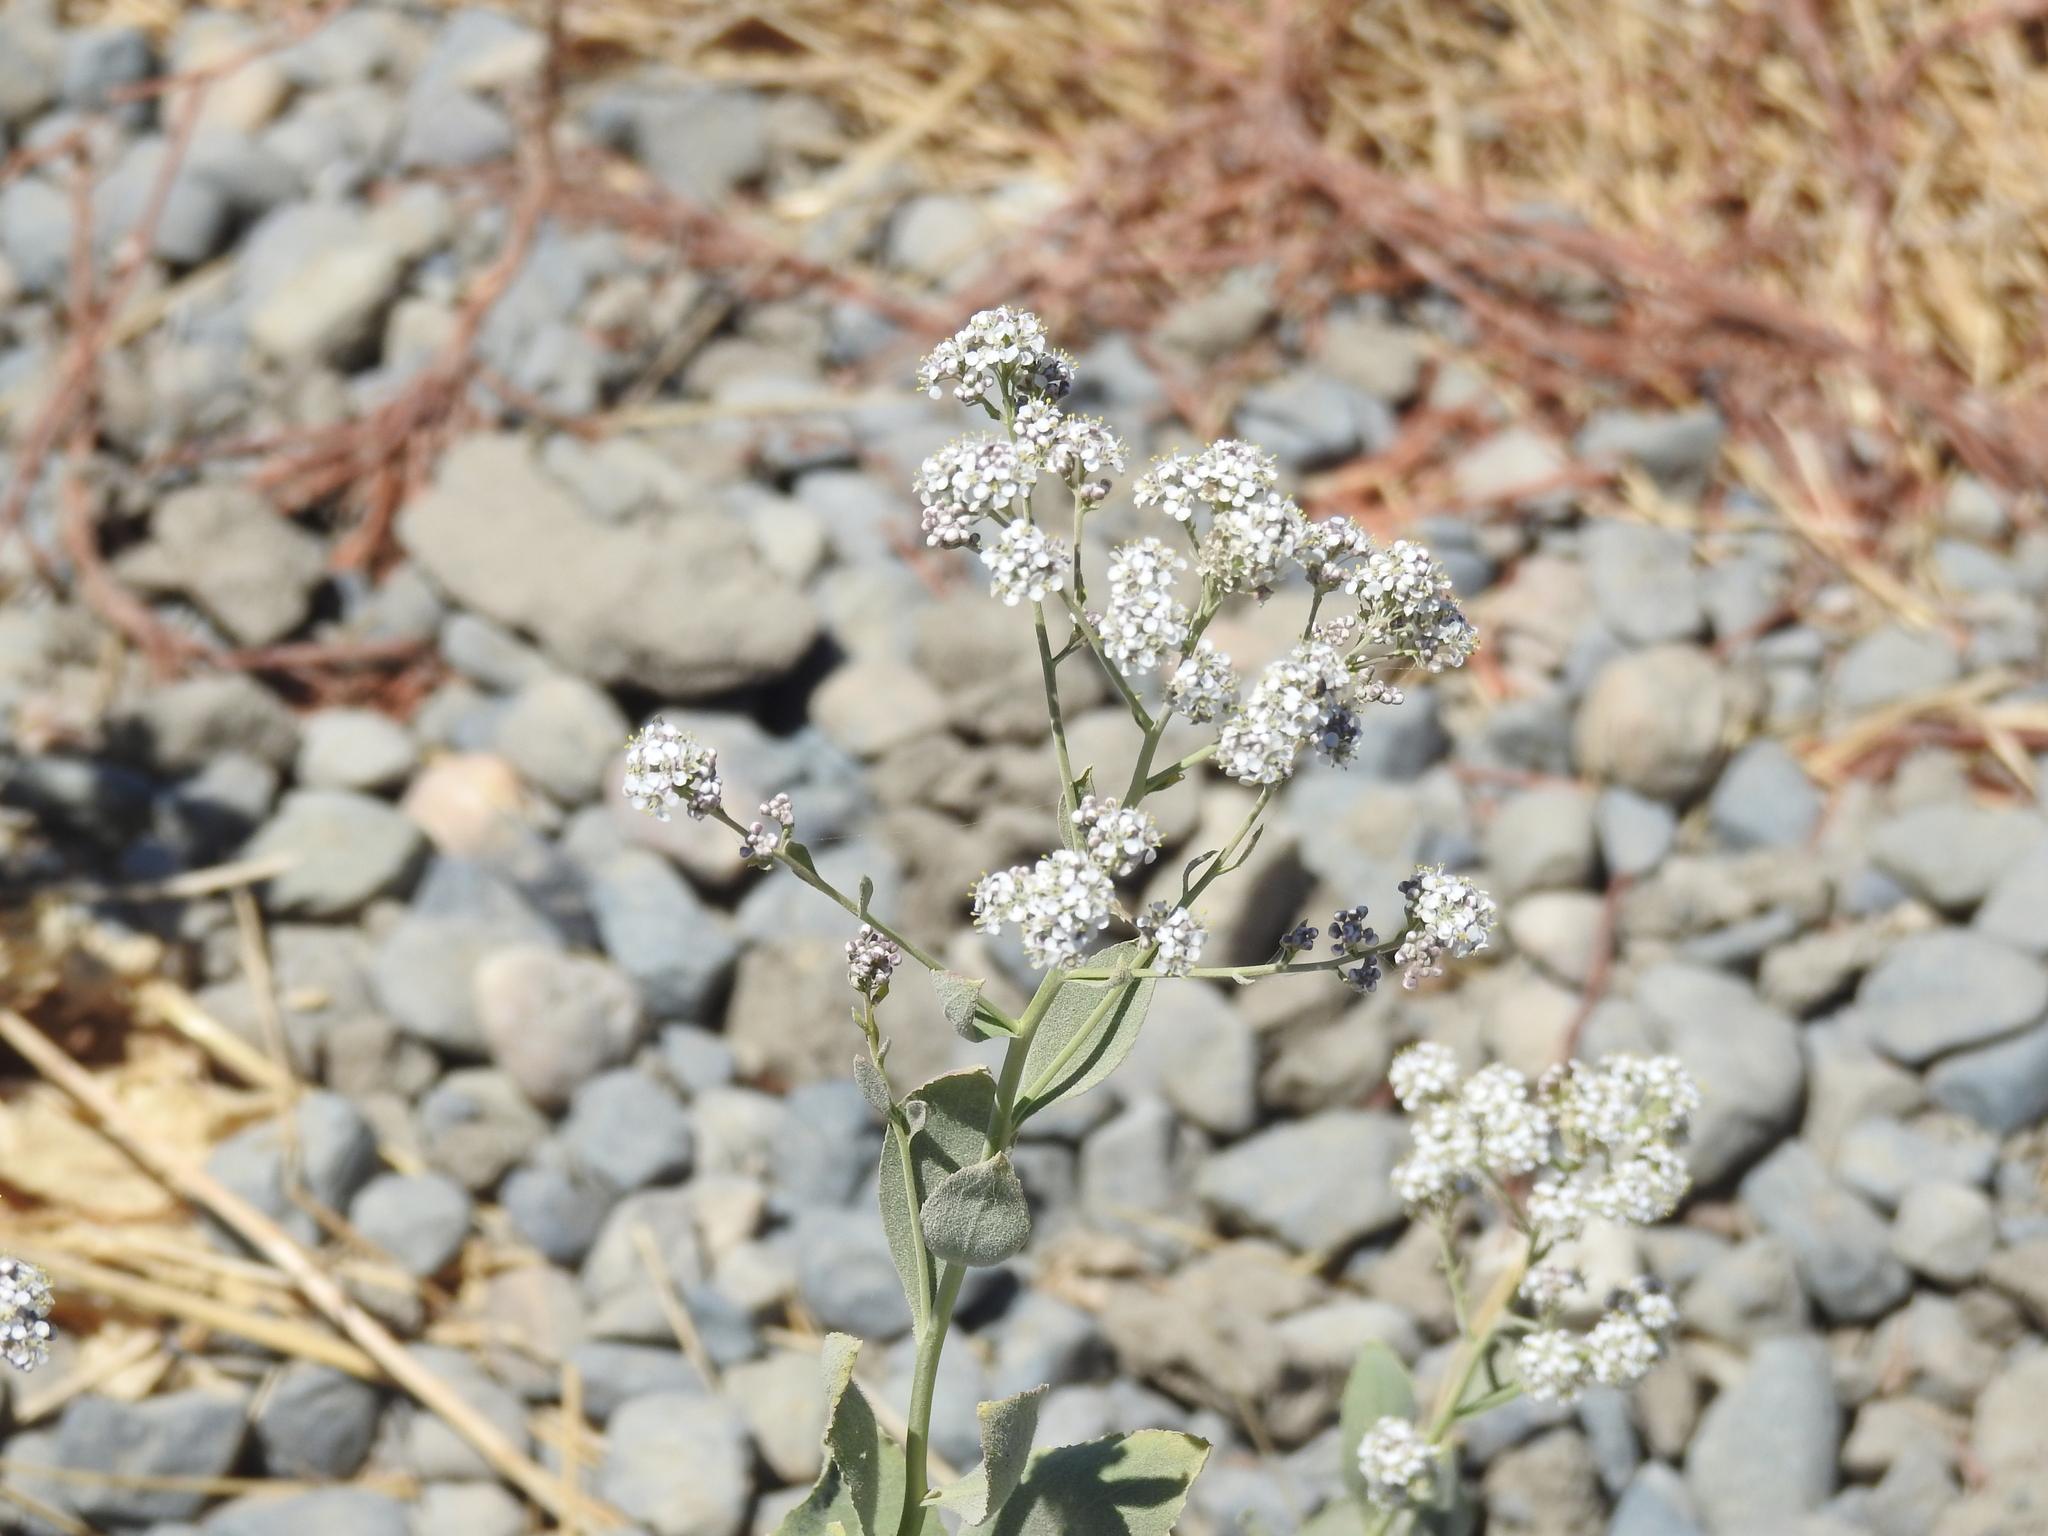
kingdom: Plantae
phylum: Tracheophyta
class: Magnoliopsida
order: Brassicales
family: Brassicaceae
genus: Lepidium
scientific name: Lepidium latifolium
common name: Dittander
